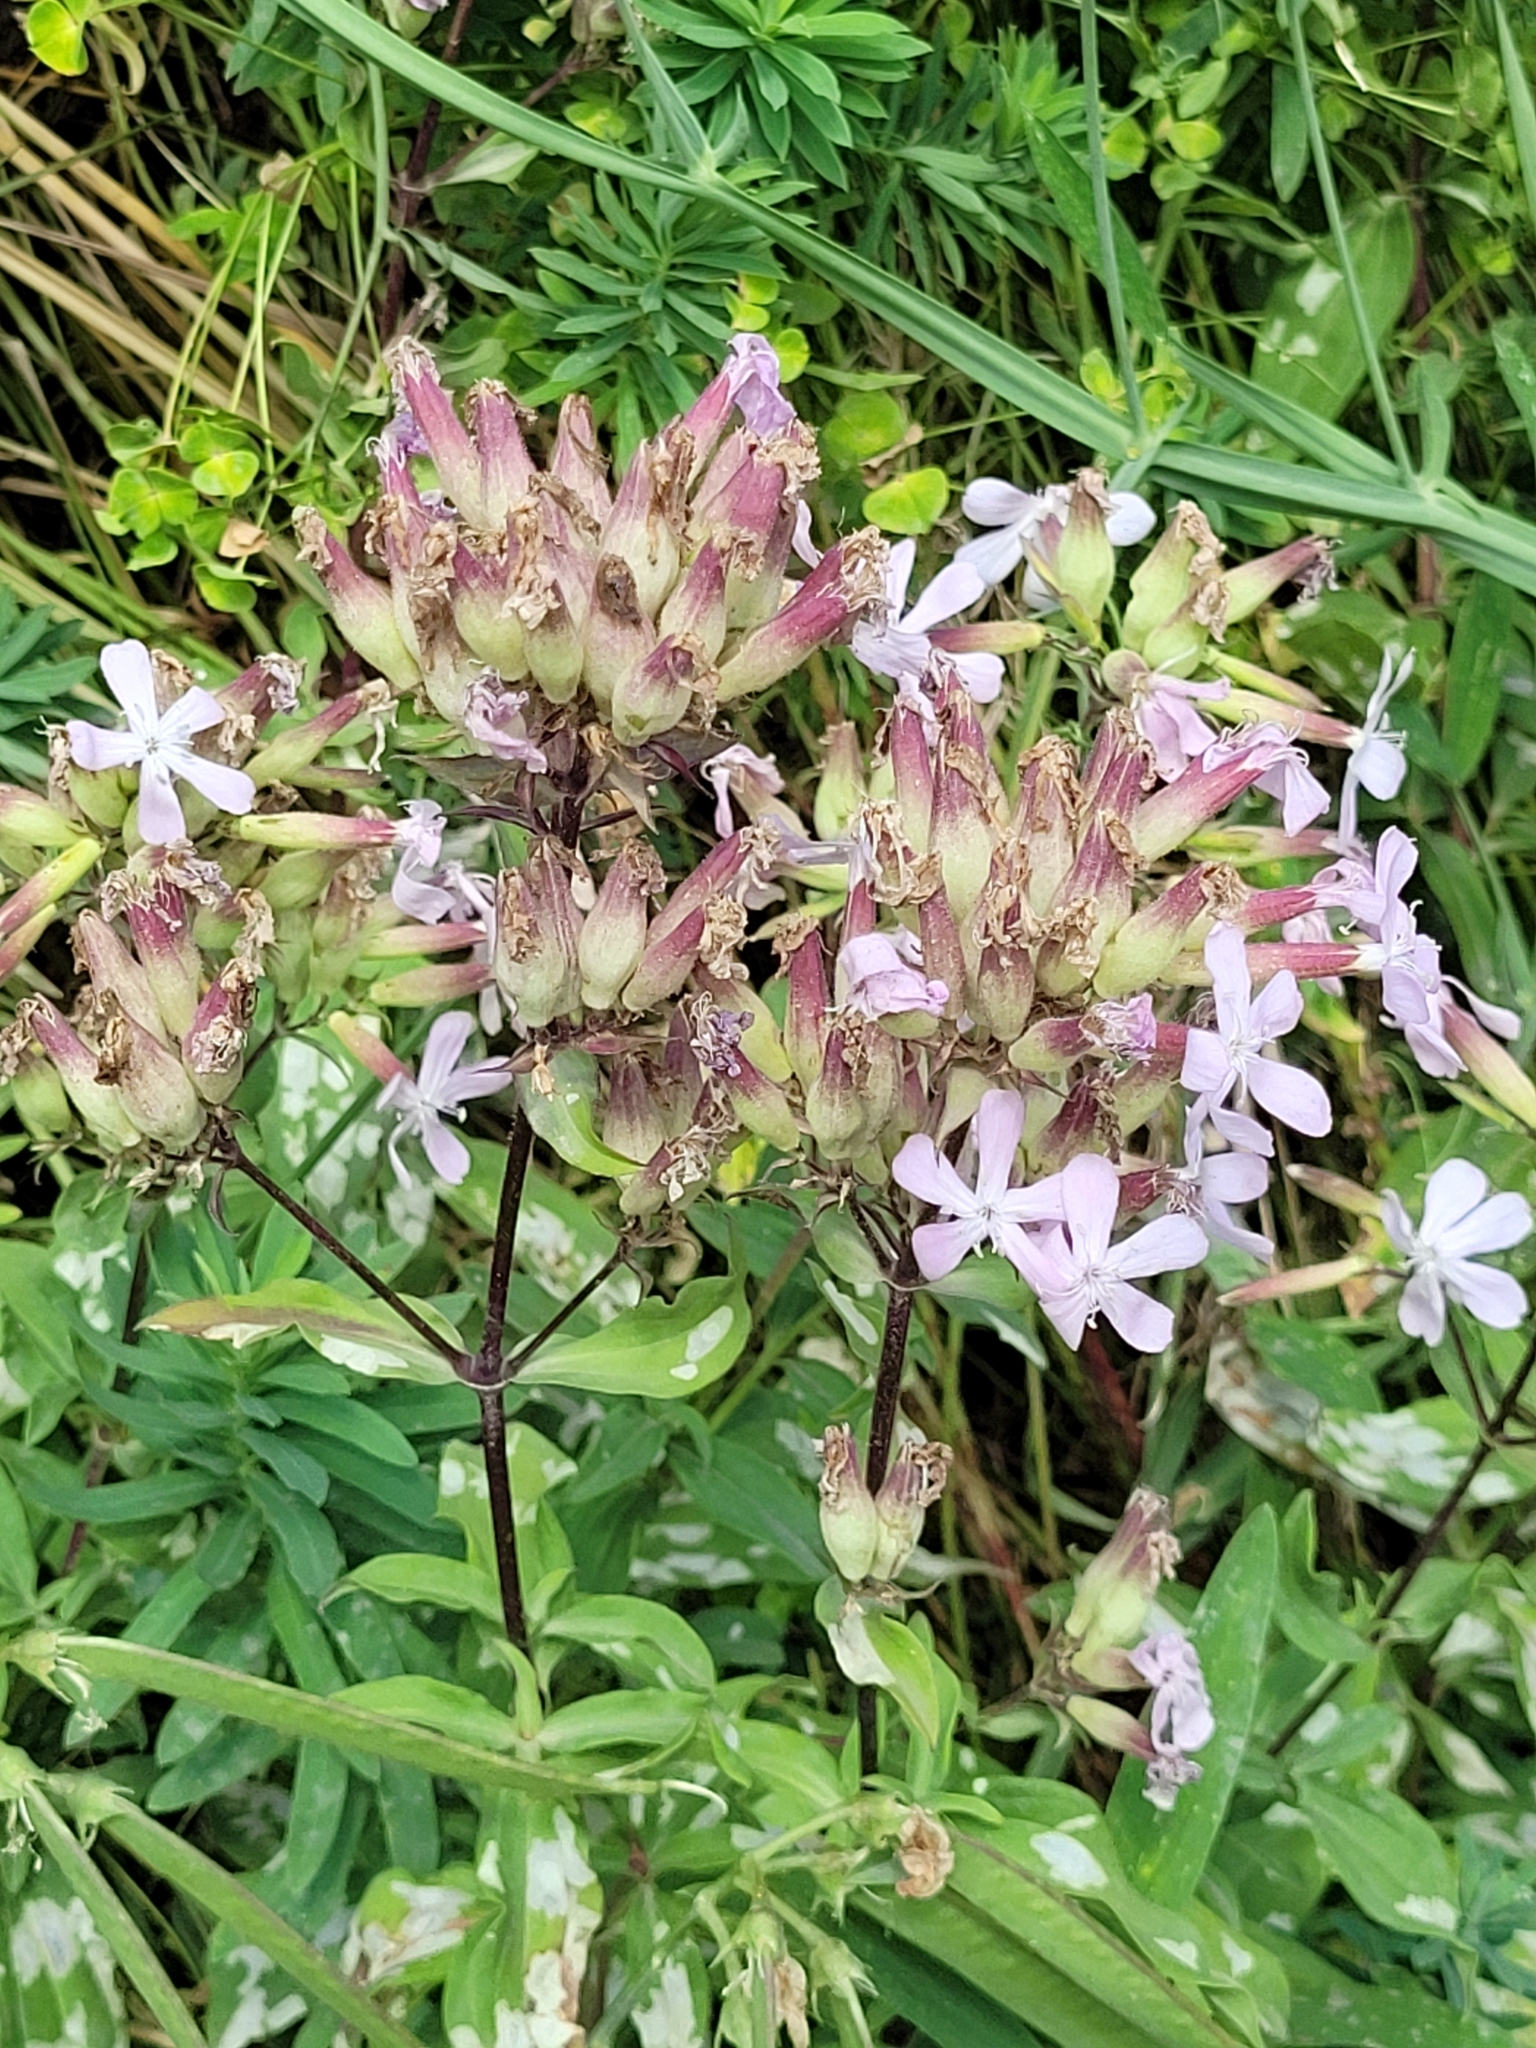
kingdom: Plantae
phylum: Tracheophyta
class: Magnoliopsida
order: Caryophyllales
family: Caryophyllaceae
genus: Saponaria
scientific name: Saponaria officinalis
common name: Soapwort
